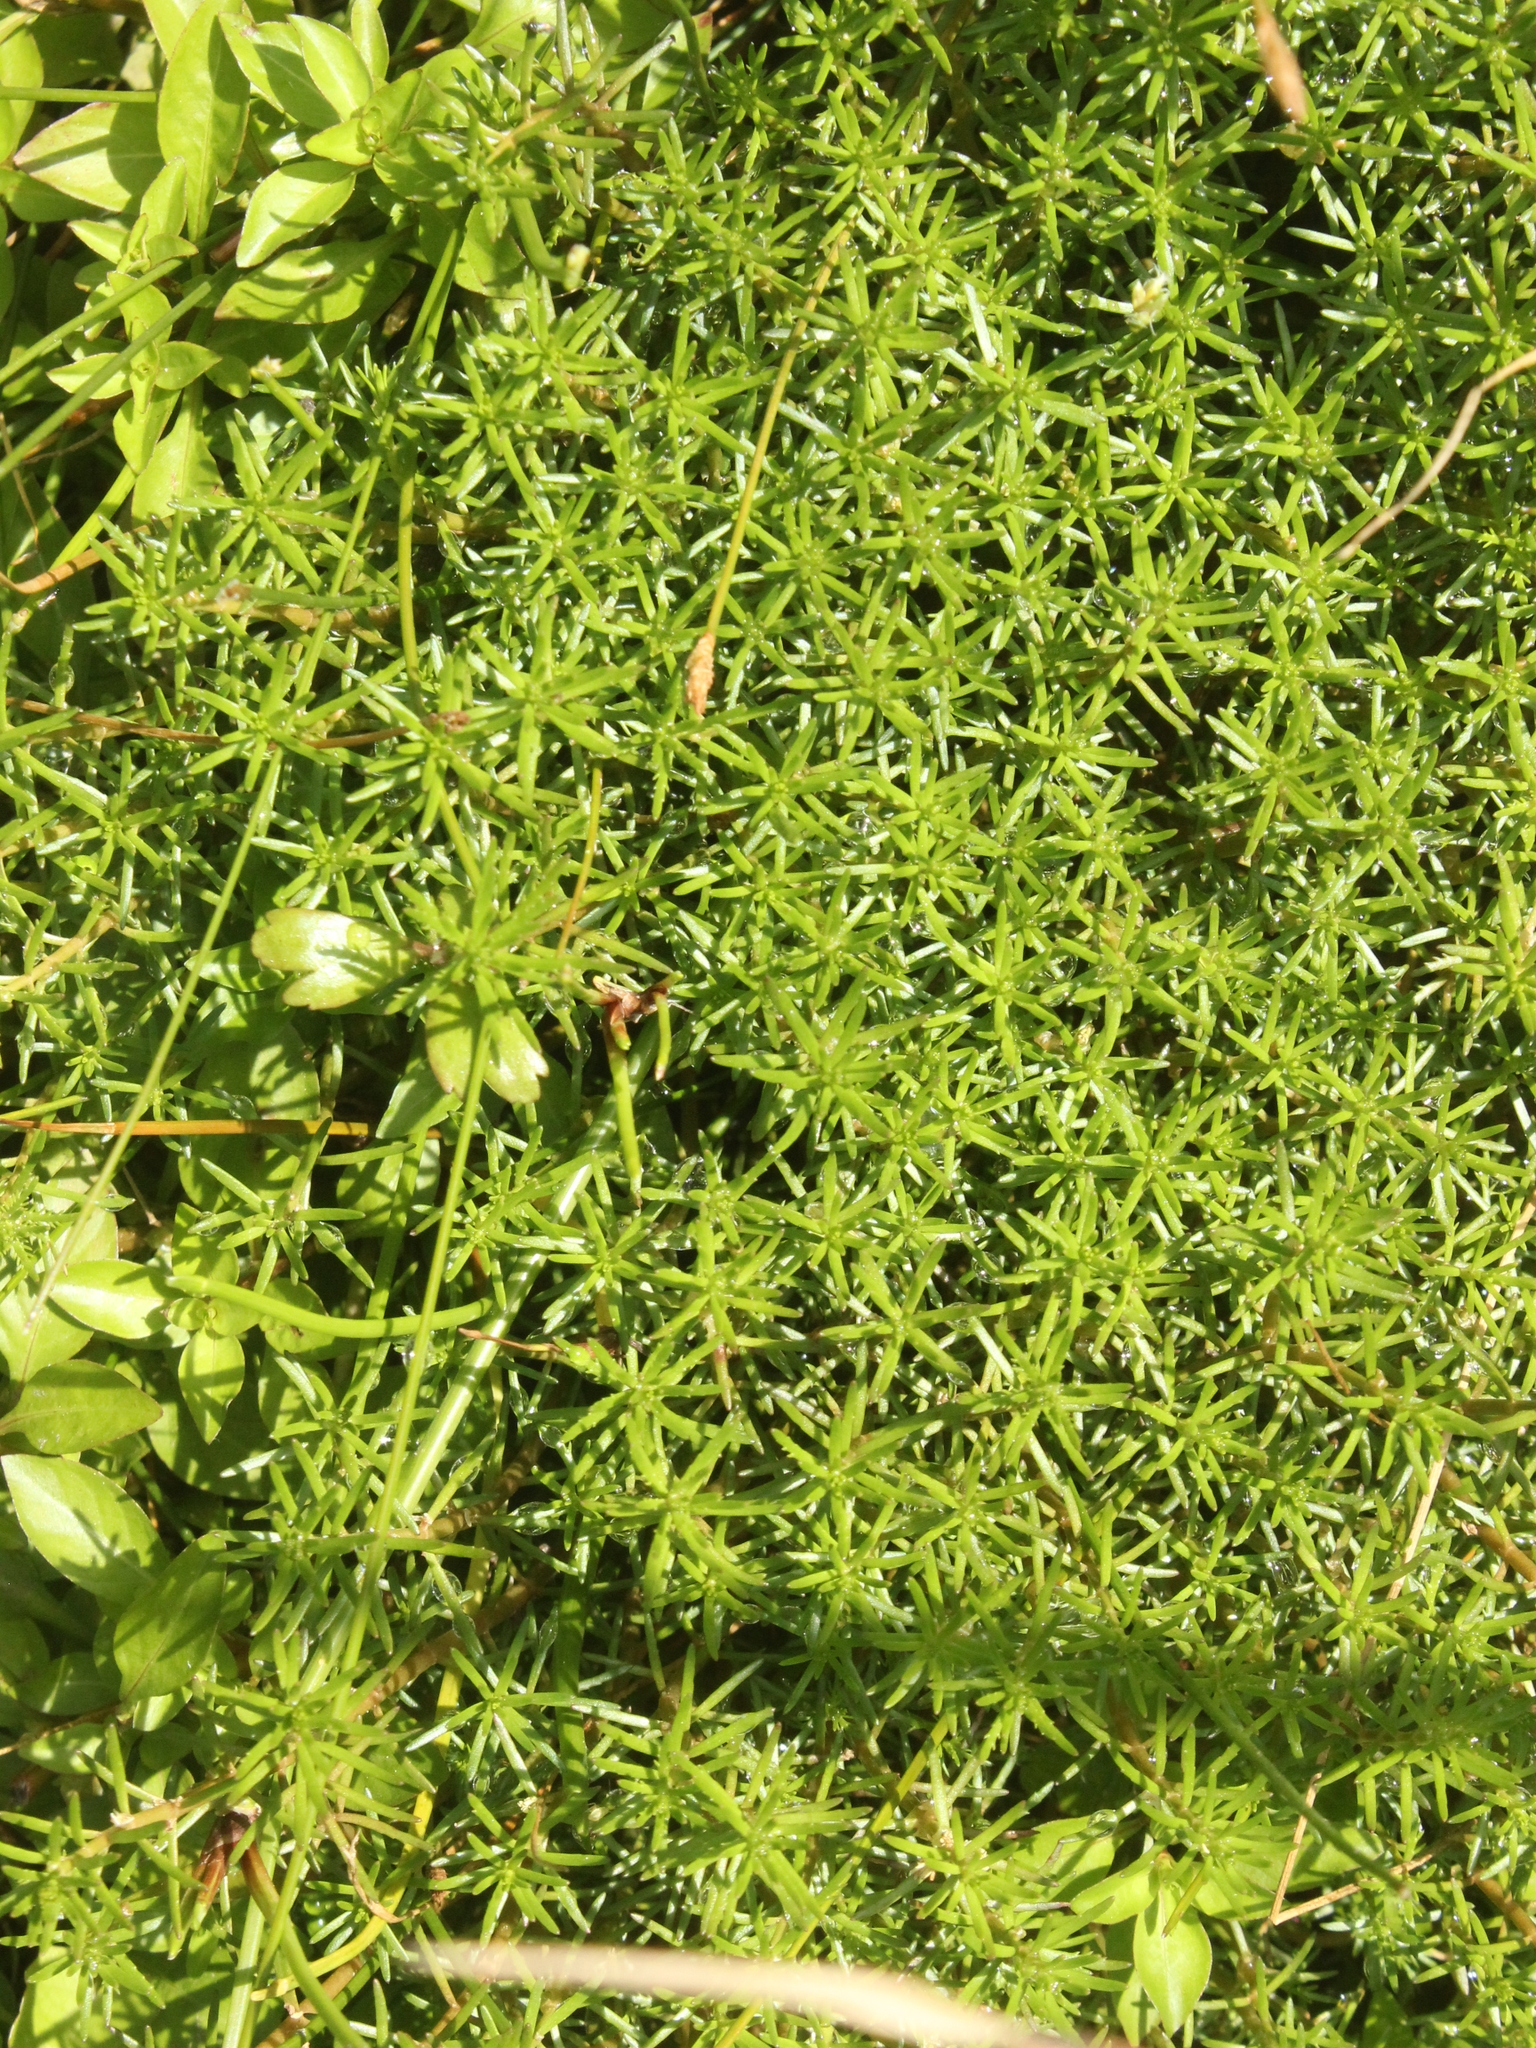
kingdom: Plantae
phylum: Tracheophyta
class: Magnoliopsida
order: Saxifragales
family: Haloragaceae
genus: Myriophyllum
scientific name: Myriophyllum propinquum
